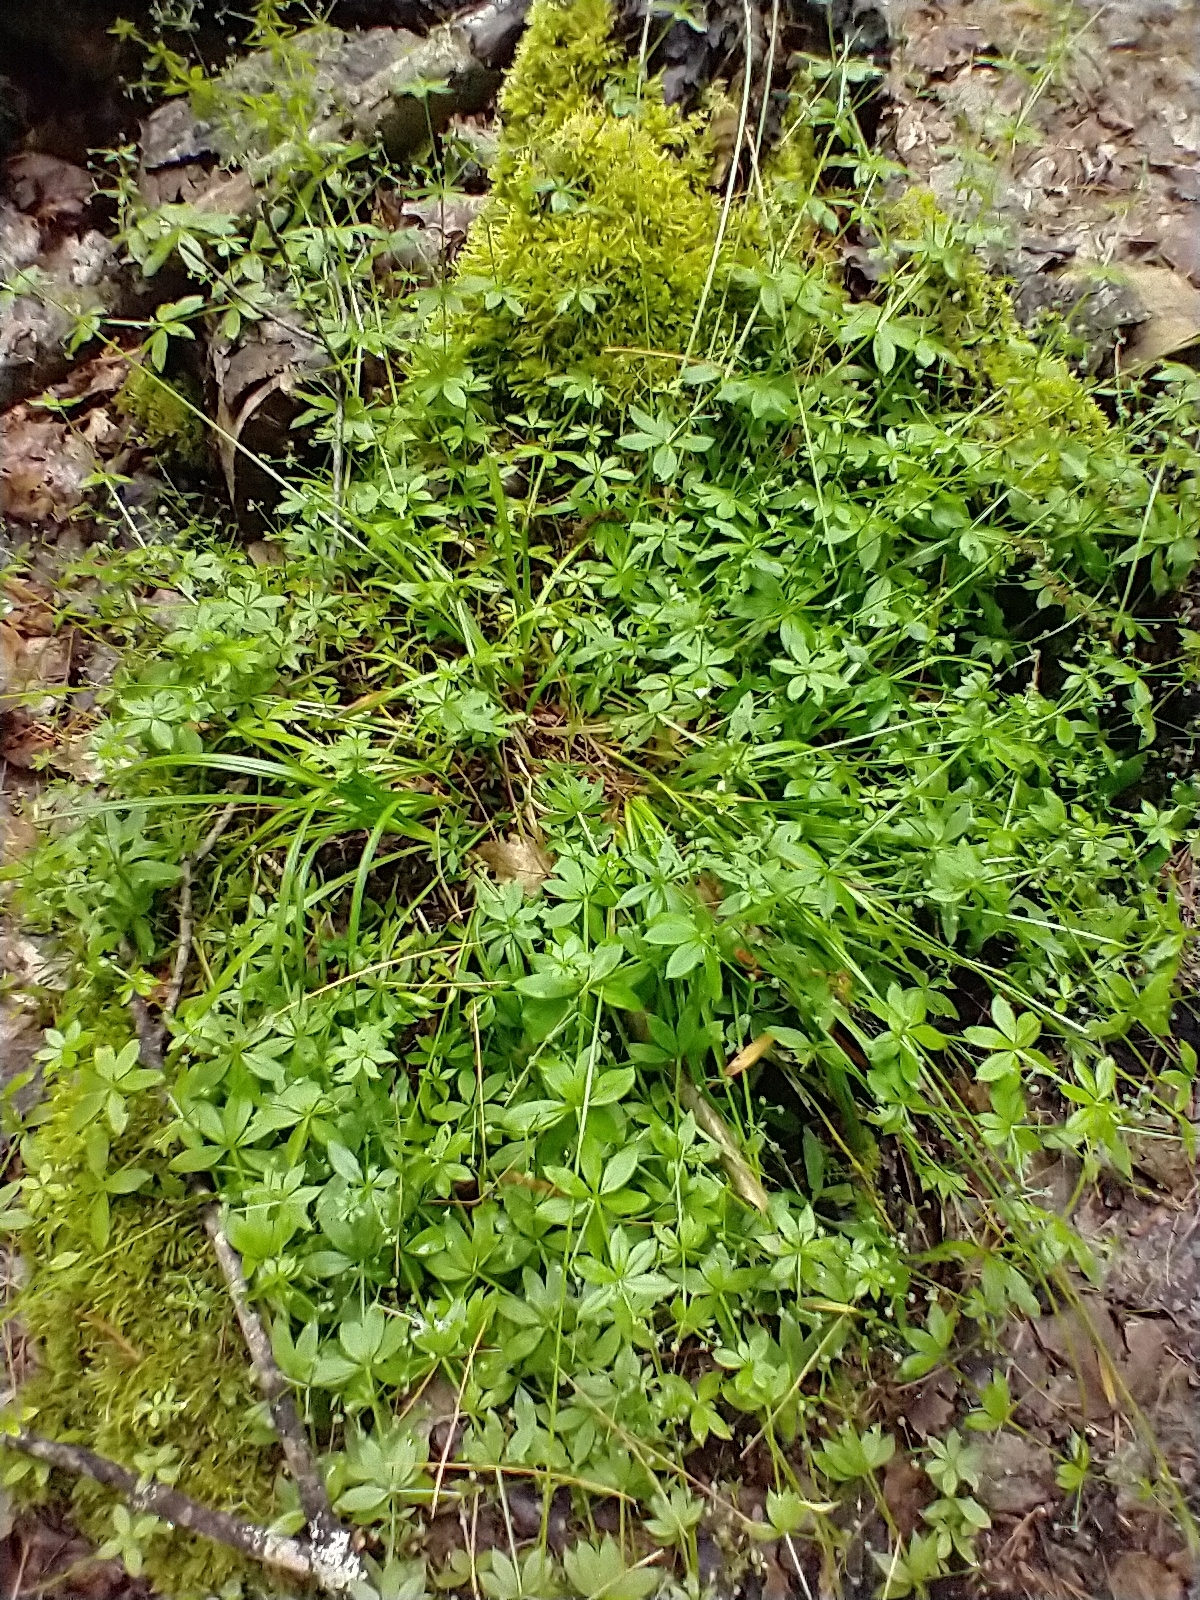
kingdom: Plantae
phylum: Tracheophyta
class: Magnoliopsida
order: Gentianales
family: Rubiaceae
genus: Galium
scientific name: Galium triflorum
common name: Fragrant bedstraw
